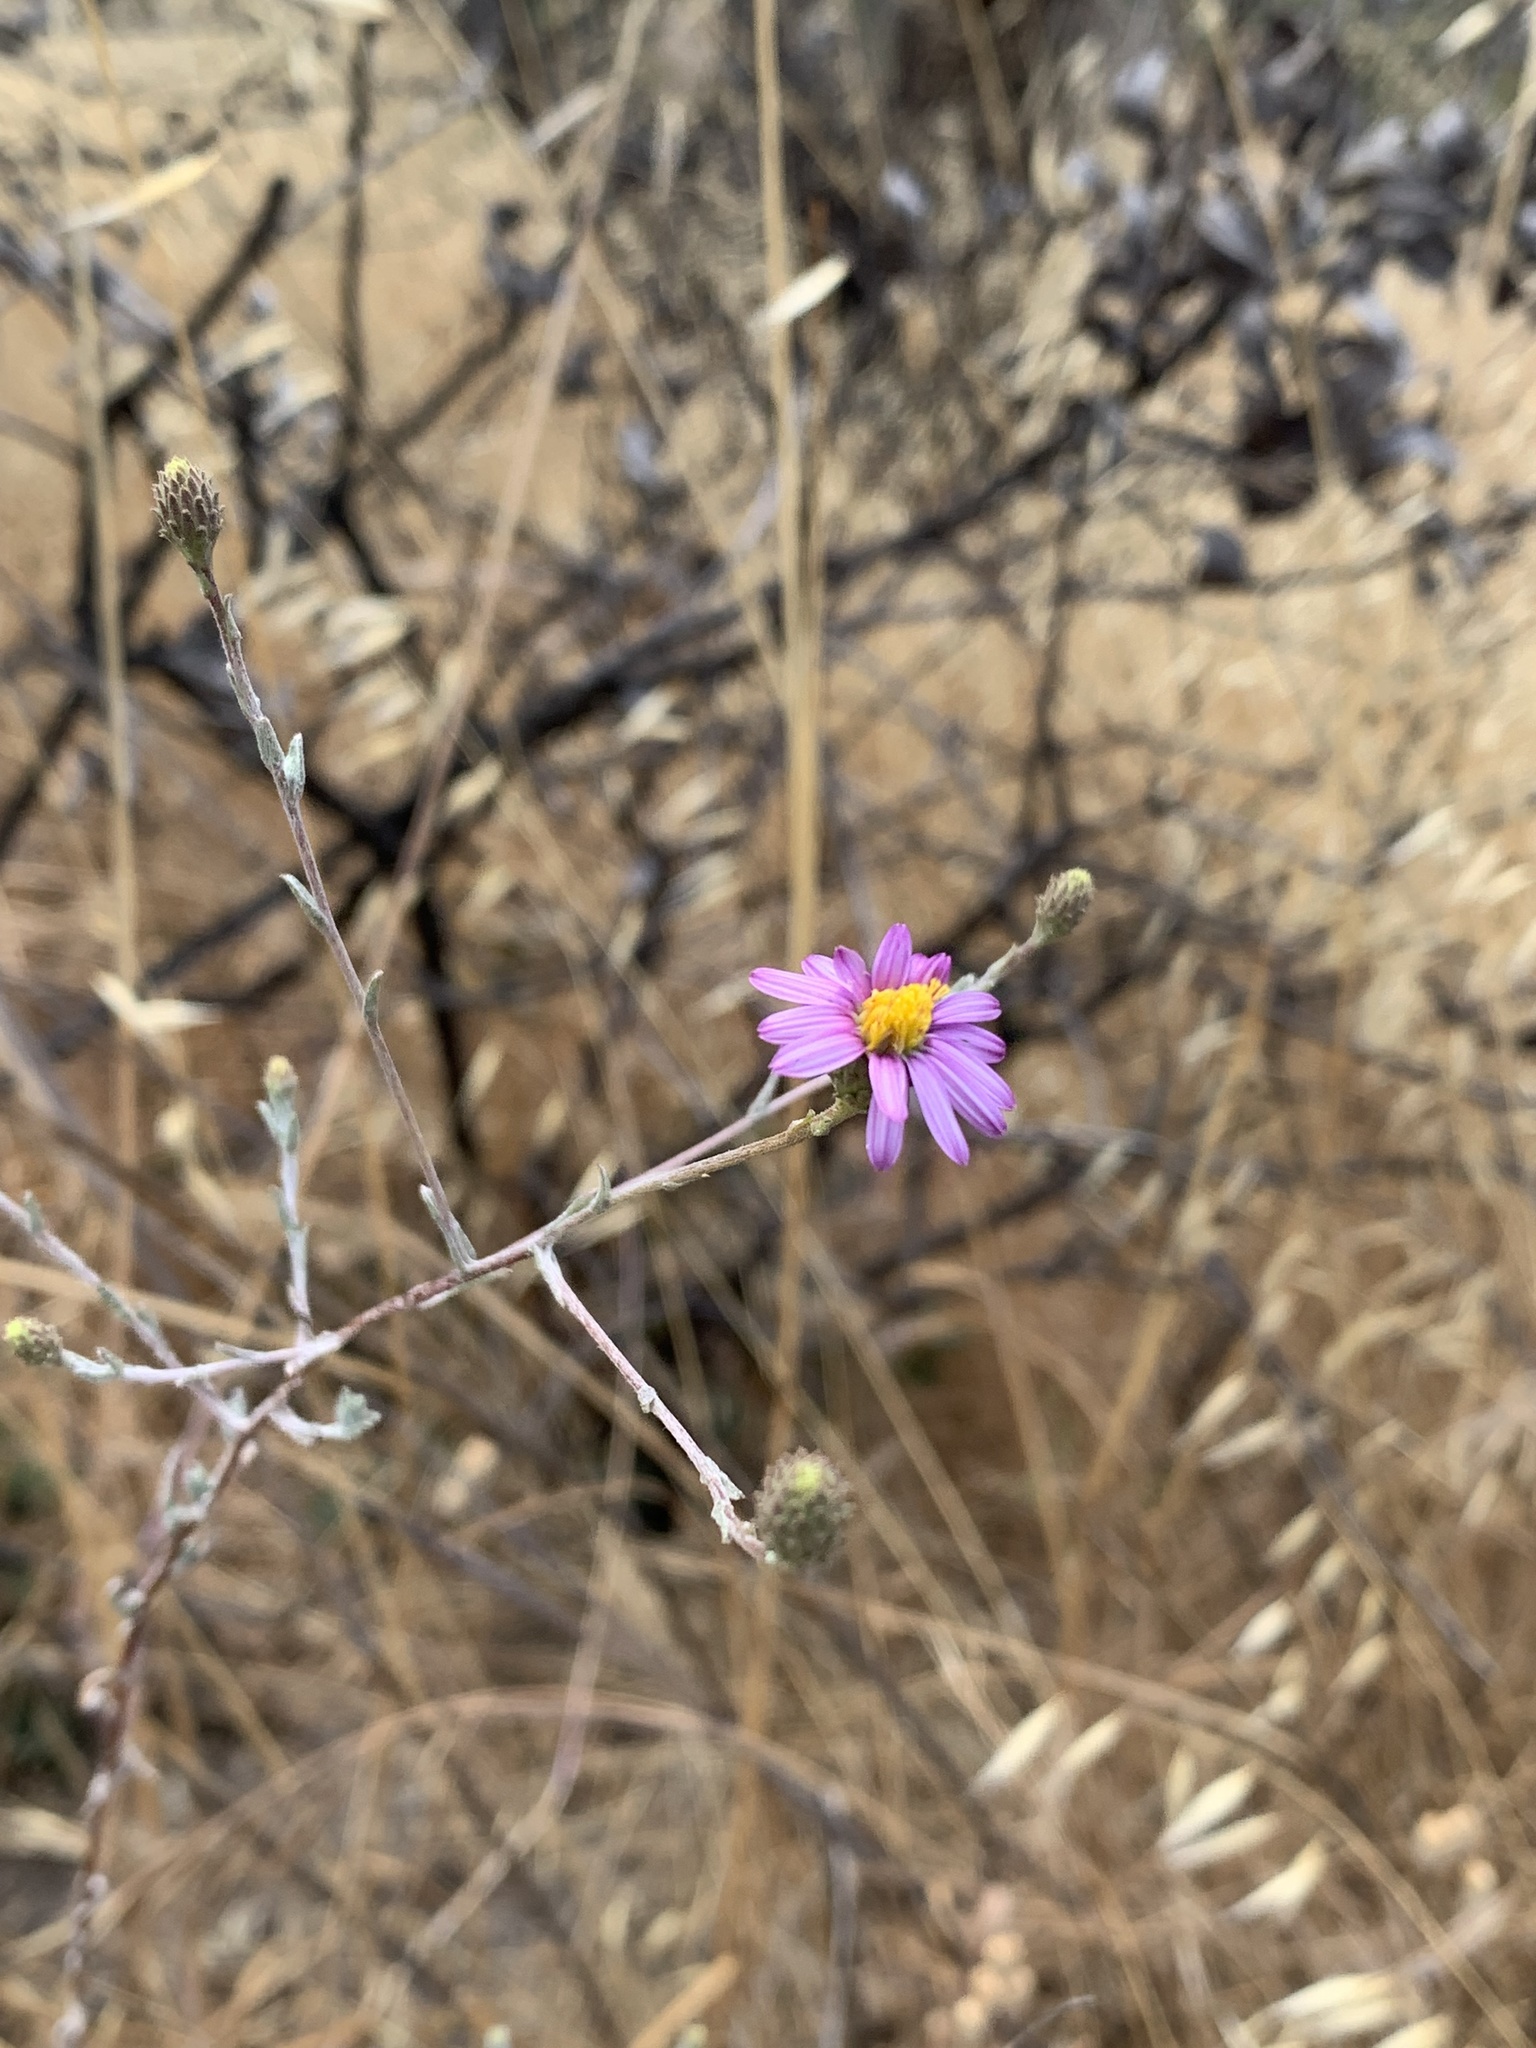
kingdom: Plantae
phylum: Tracheophyta
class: Magnoliopsida
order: Asterales
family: Asteraceae
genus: Corethrogyne
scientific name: Corethrogyne filaginifolia
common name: Sand-aster
